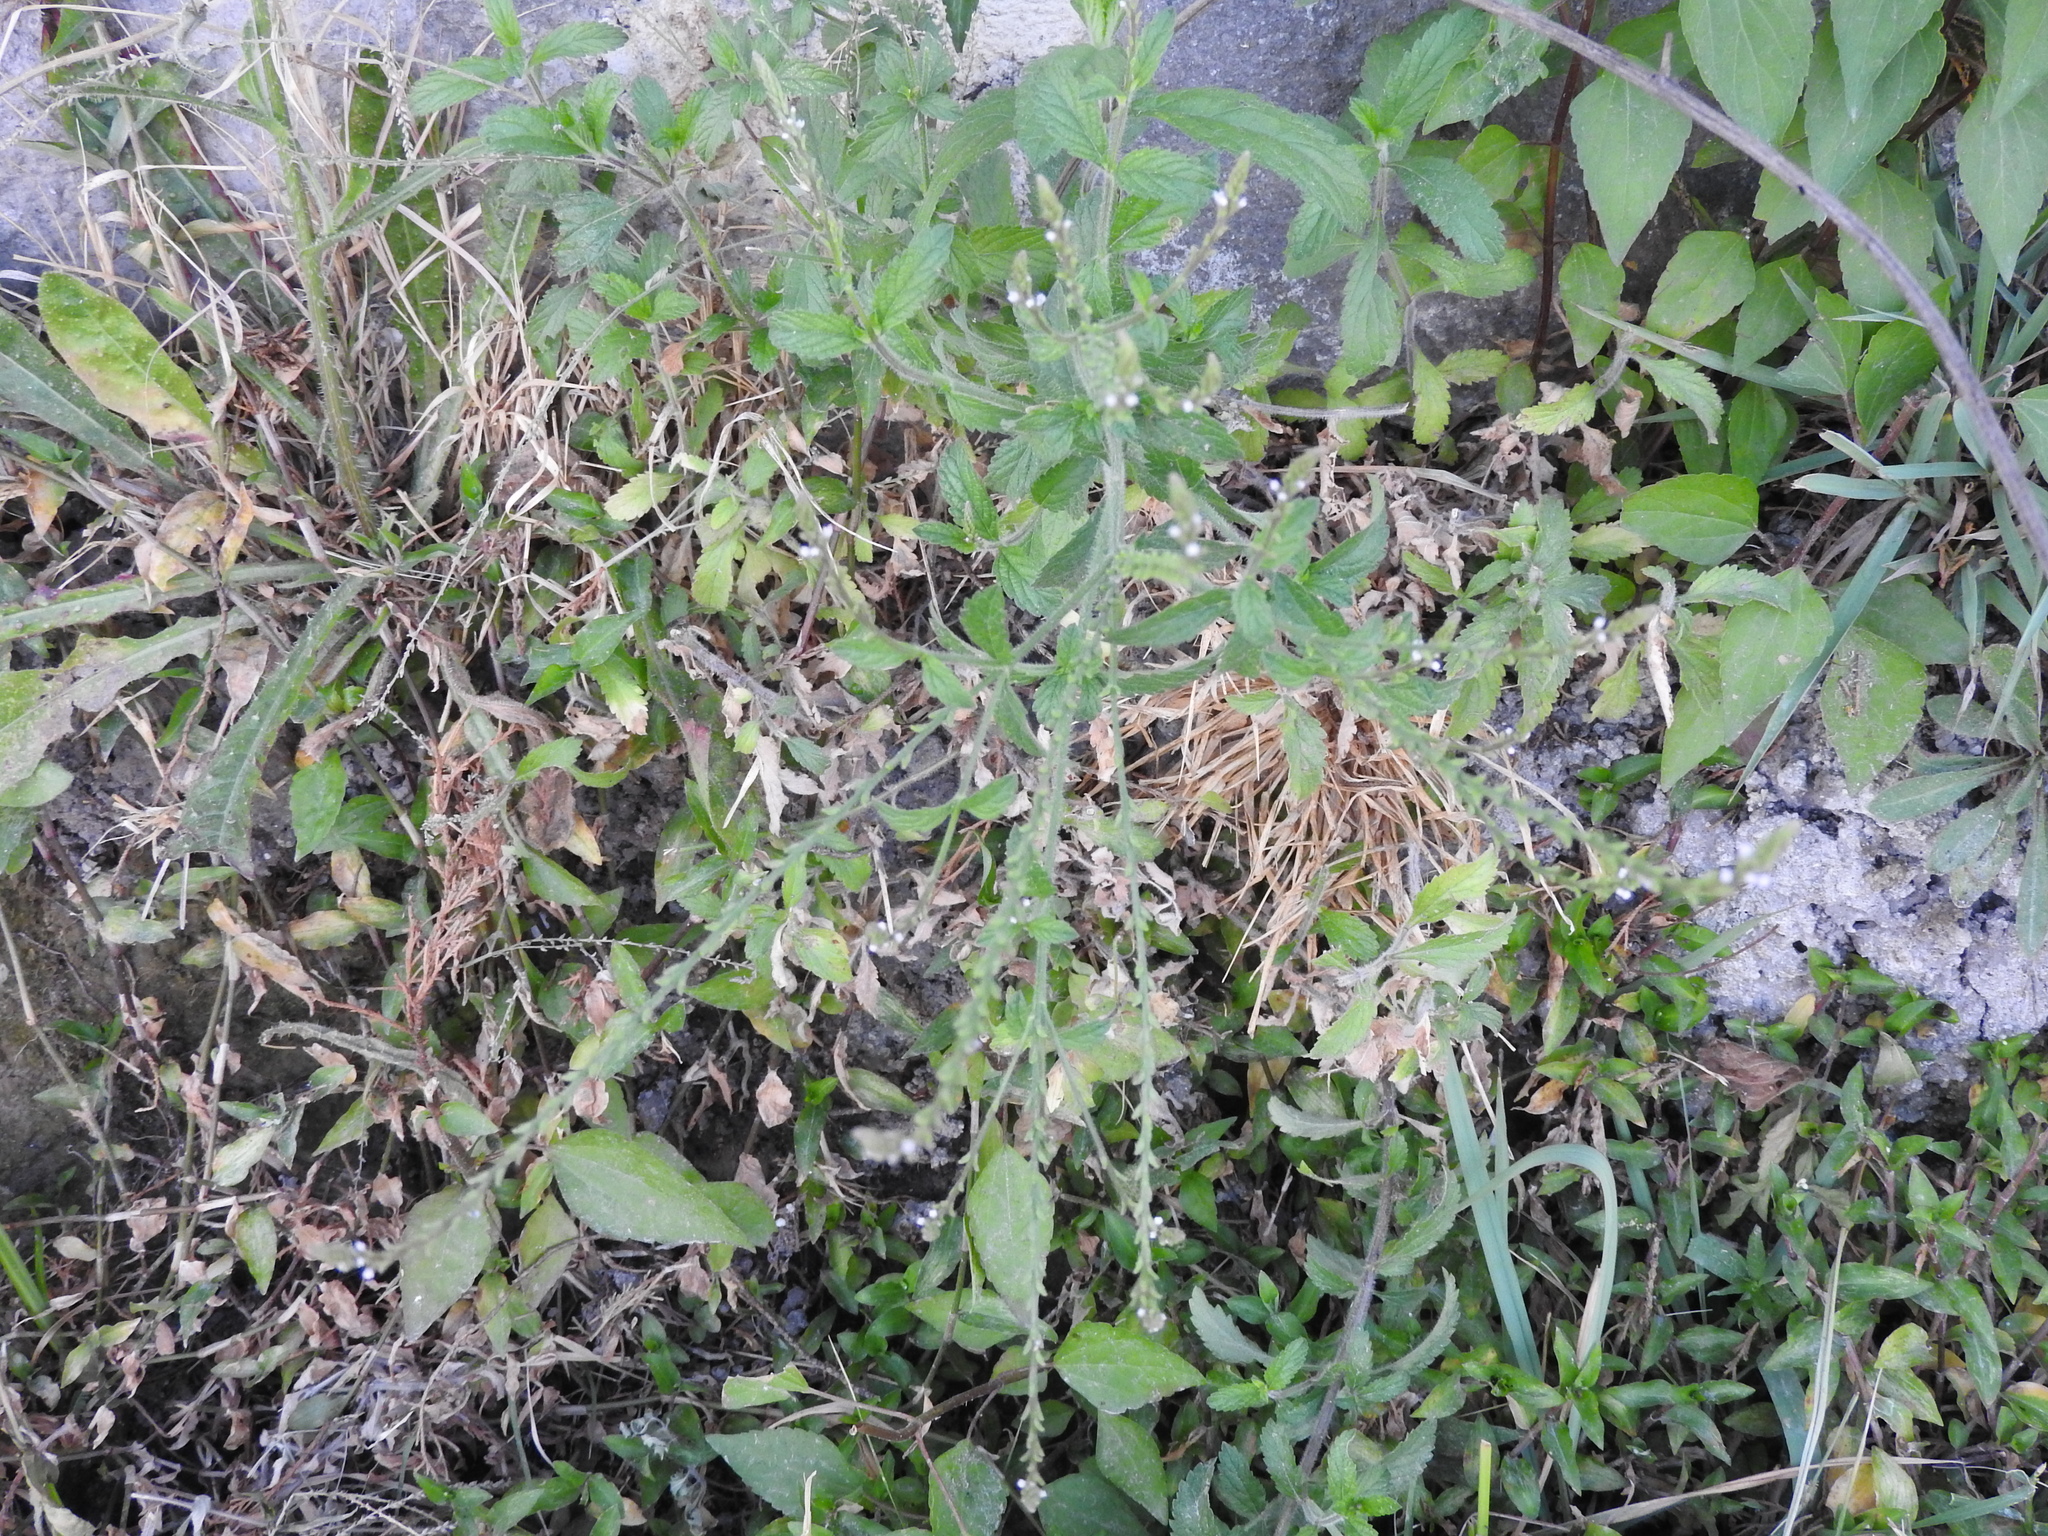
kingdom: Plantae
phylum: Tracheophyta
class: Magnoliopsida
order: Lamiales
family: Verbenaceae
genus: Verbena
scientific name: Verbena gracilis
